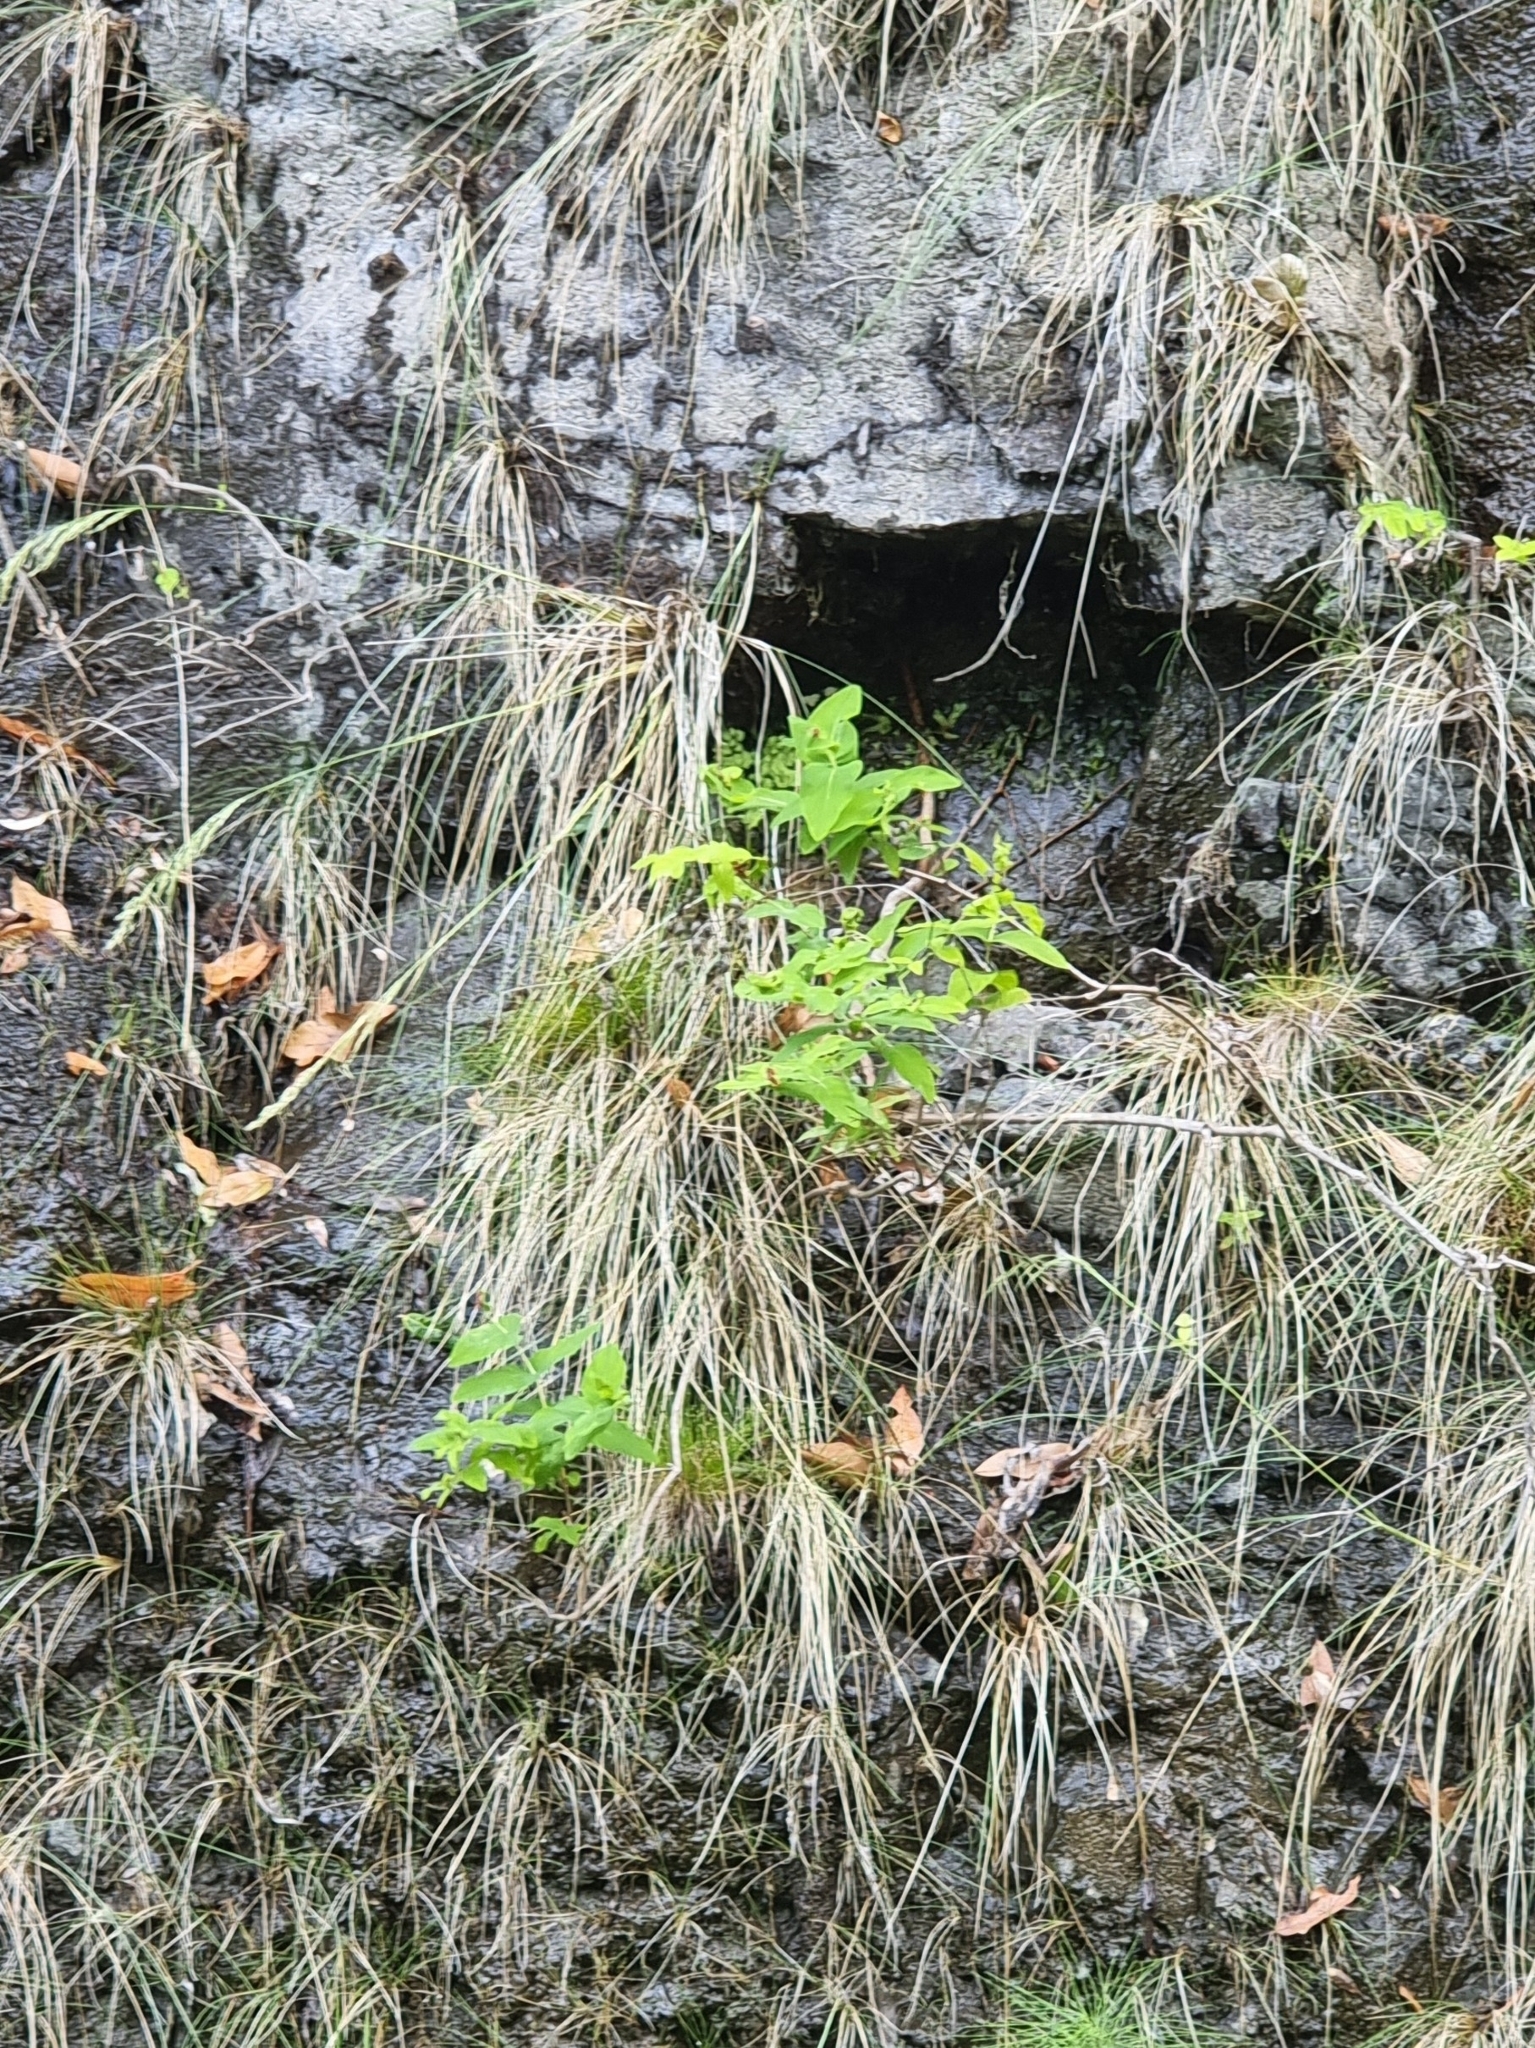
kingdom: Plantae
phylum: Tracheophyta
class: Magnoliopsida
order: Malpighiales
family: Hypericaceae
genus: Hypericum
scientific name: Hypericum grandifolium
